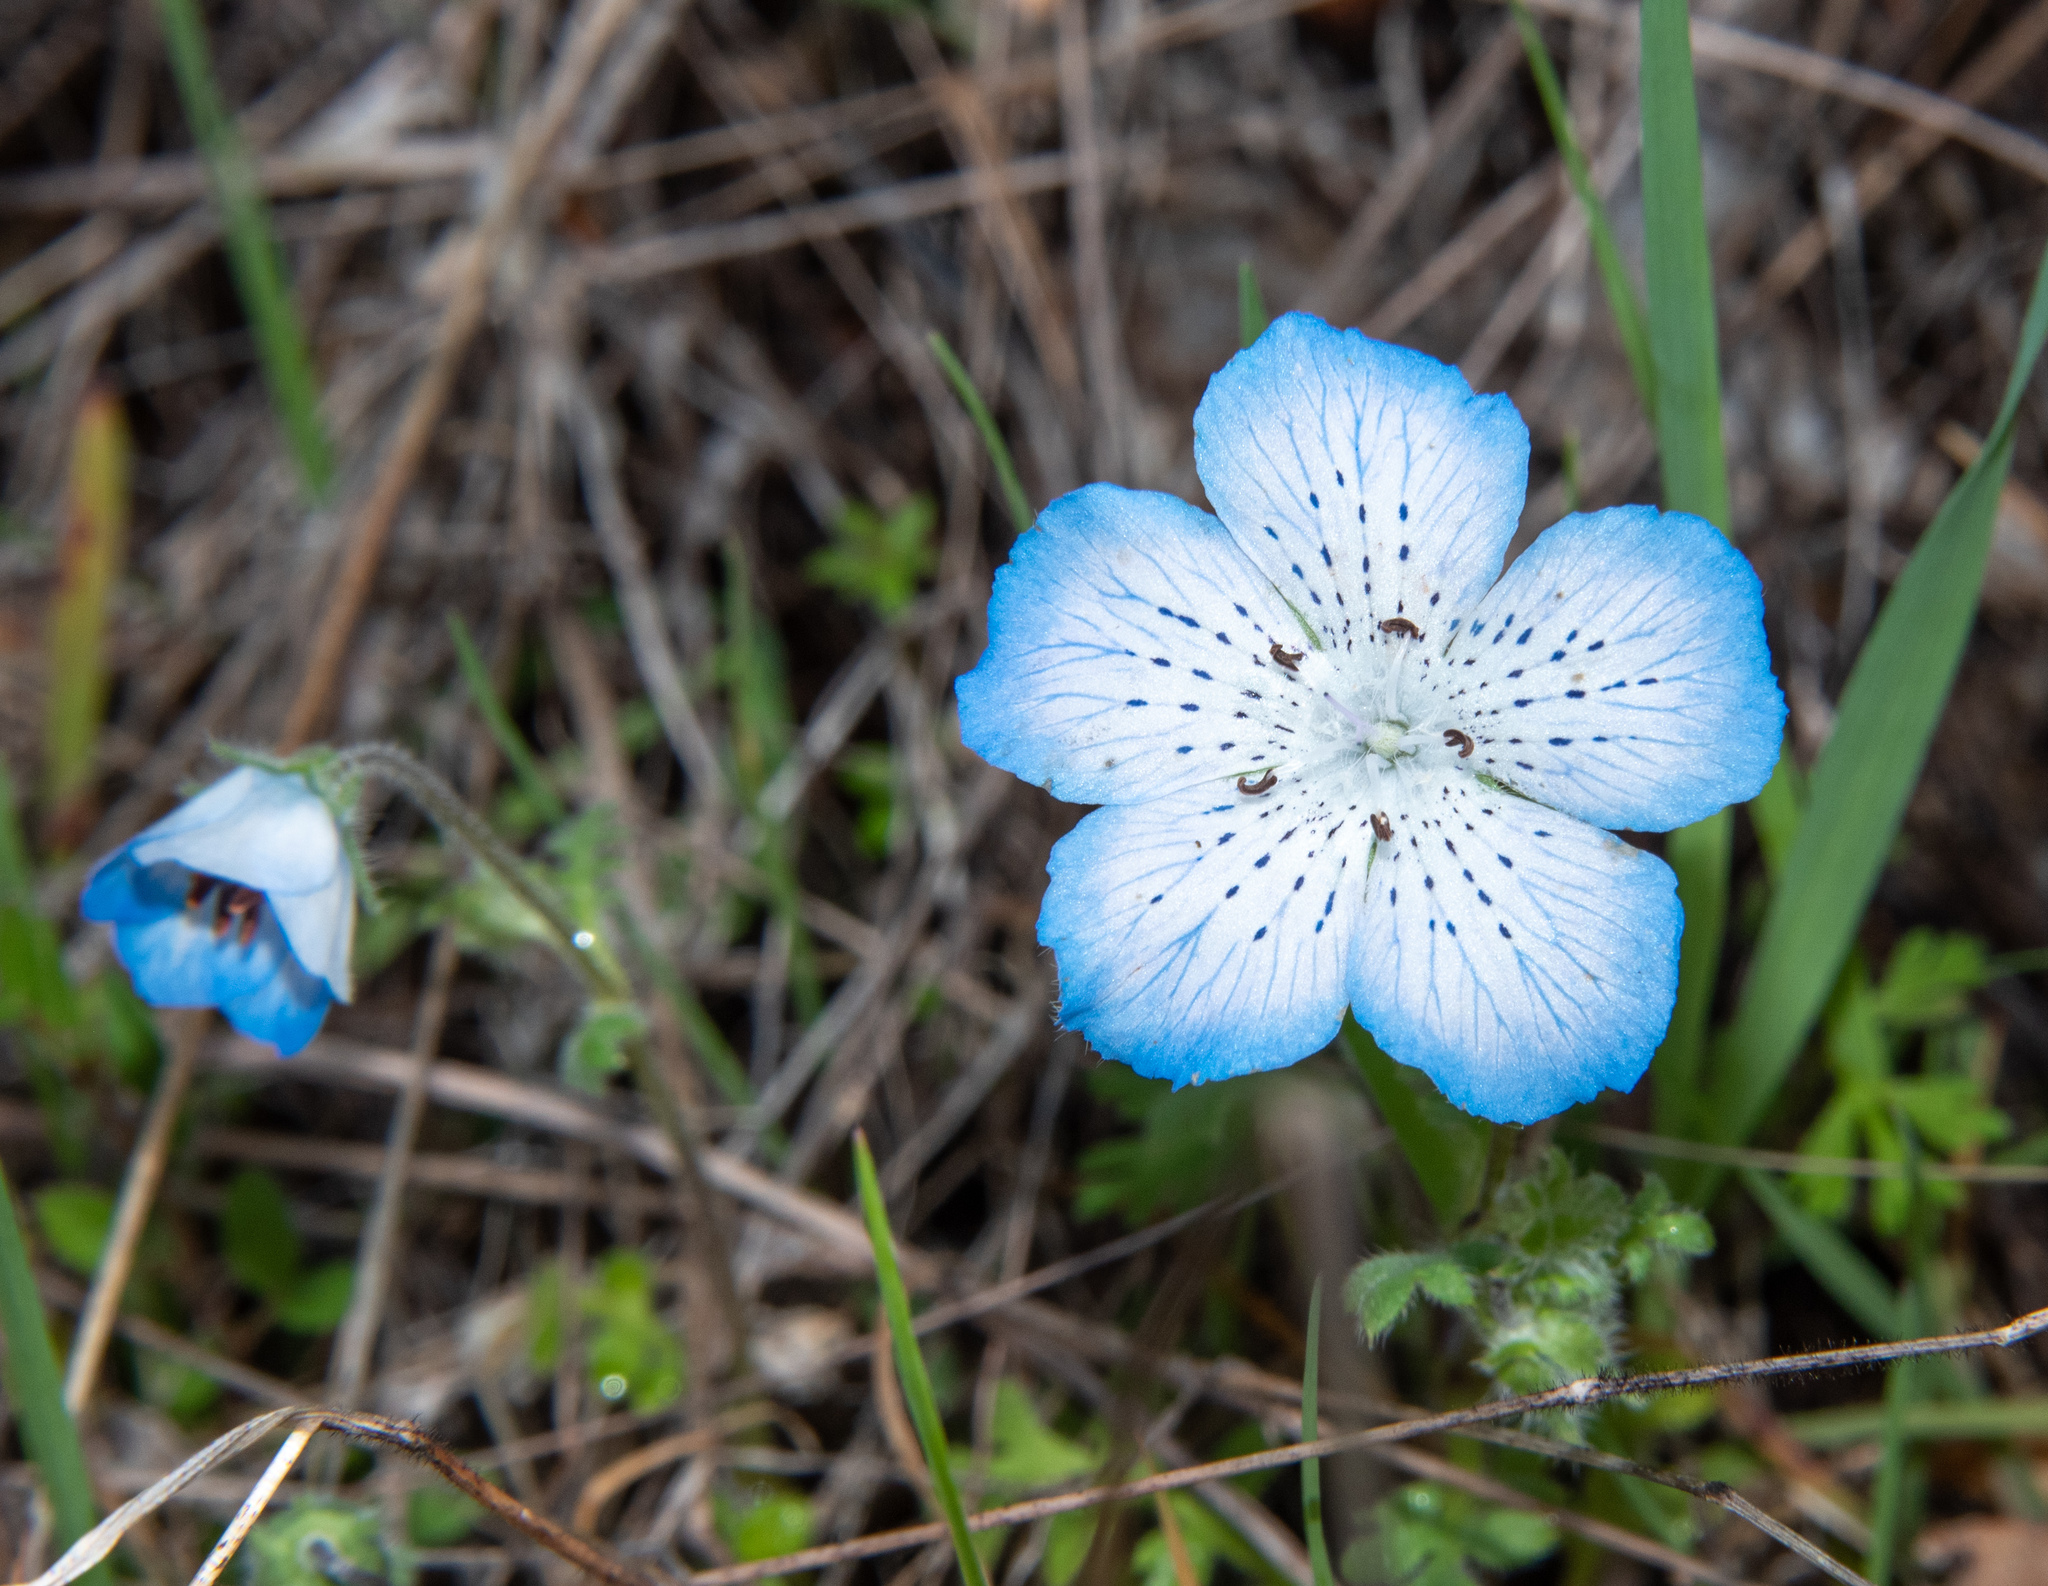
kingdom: Plantae
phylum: Tracheophyta
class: Magnoliopsida
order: Boraginales
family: Hydrophyllaceae
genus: Nemophila
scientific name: Nemophila menziesii
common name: Baby's-blue-eyes
